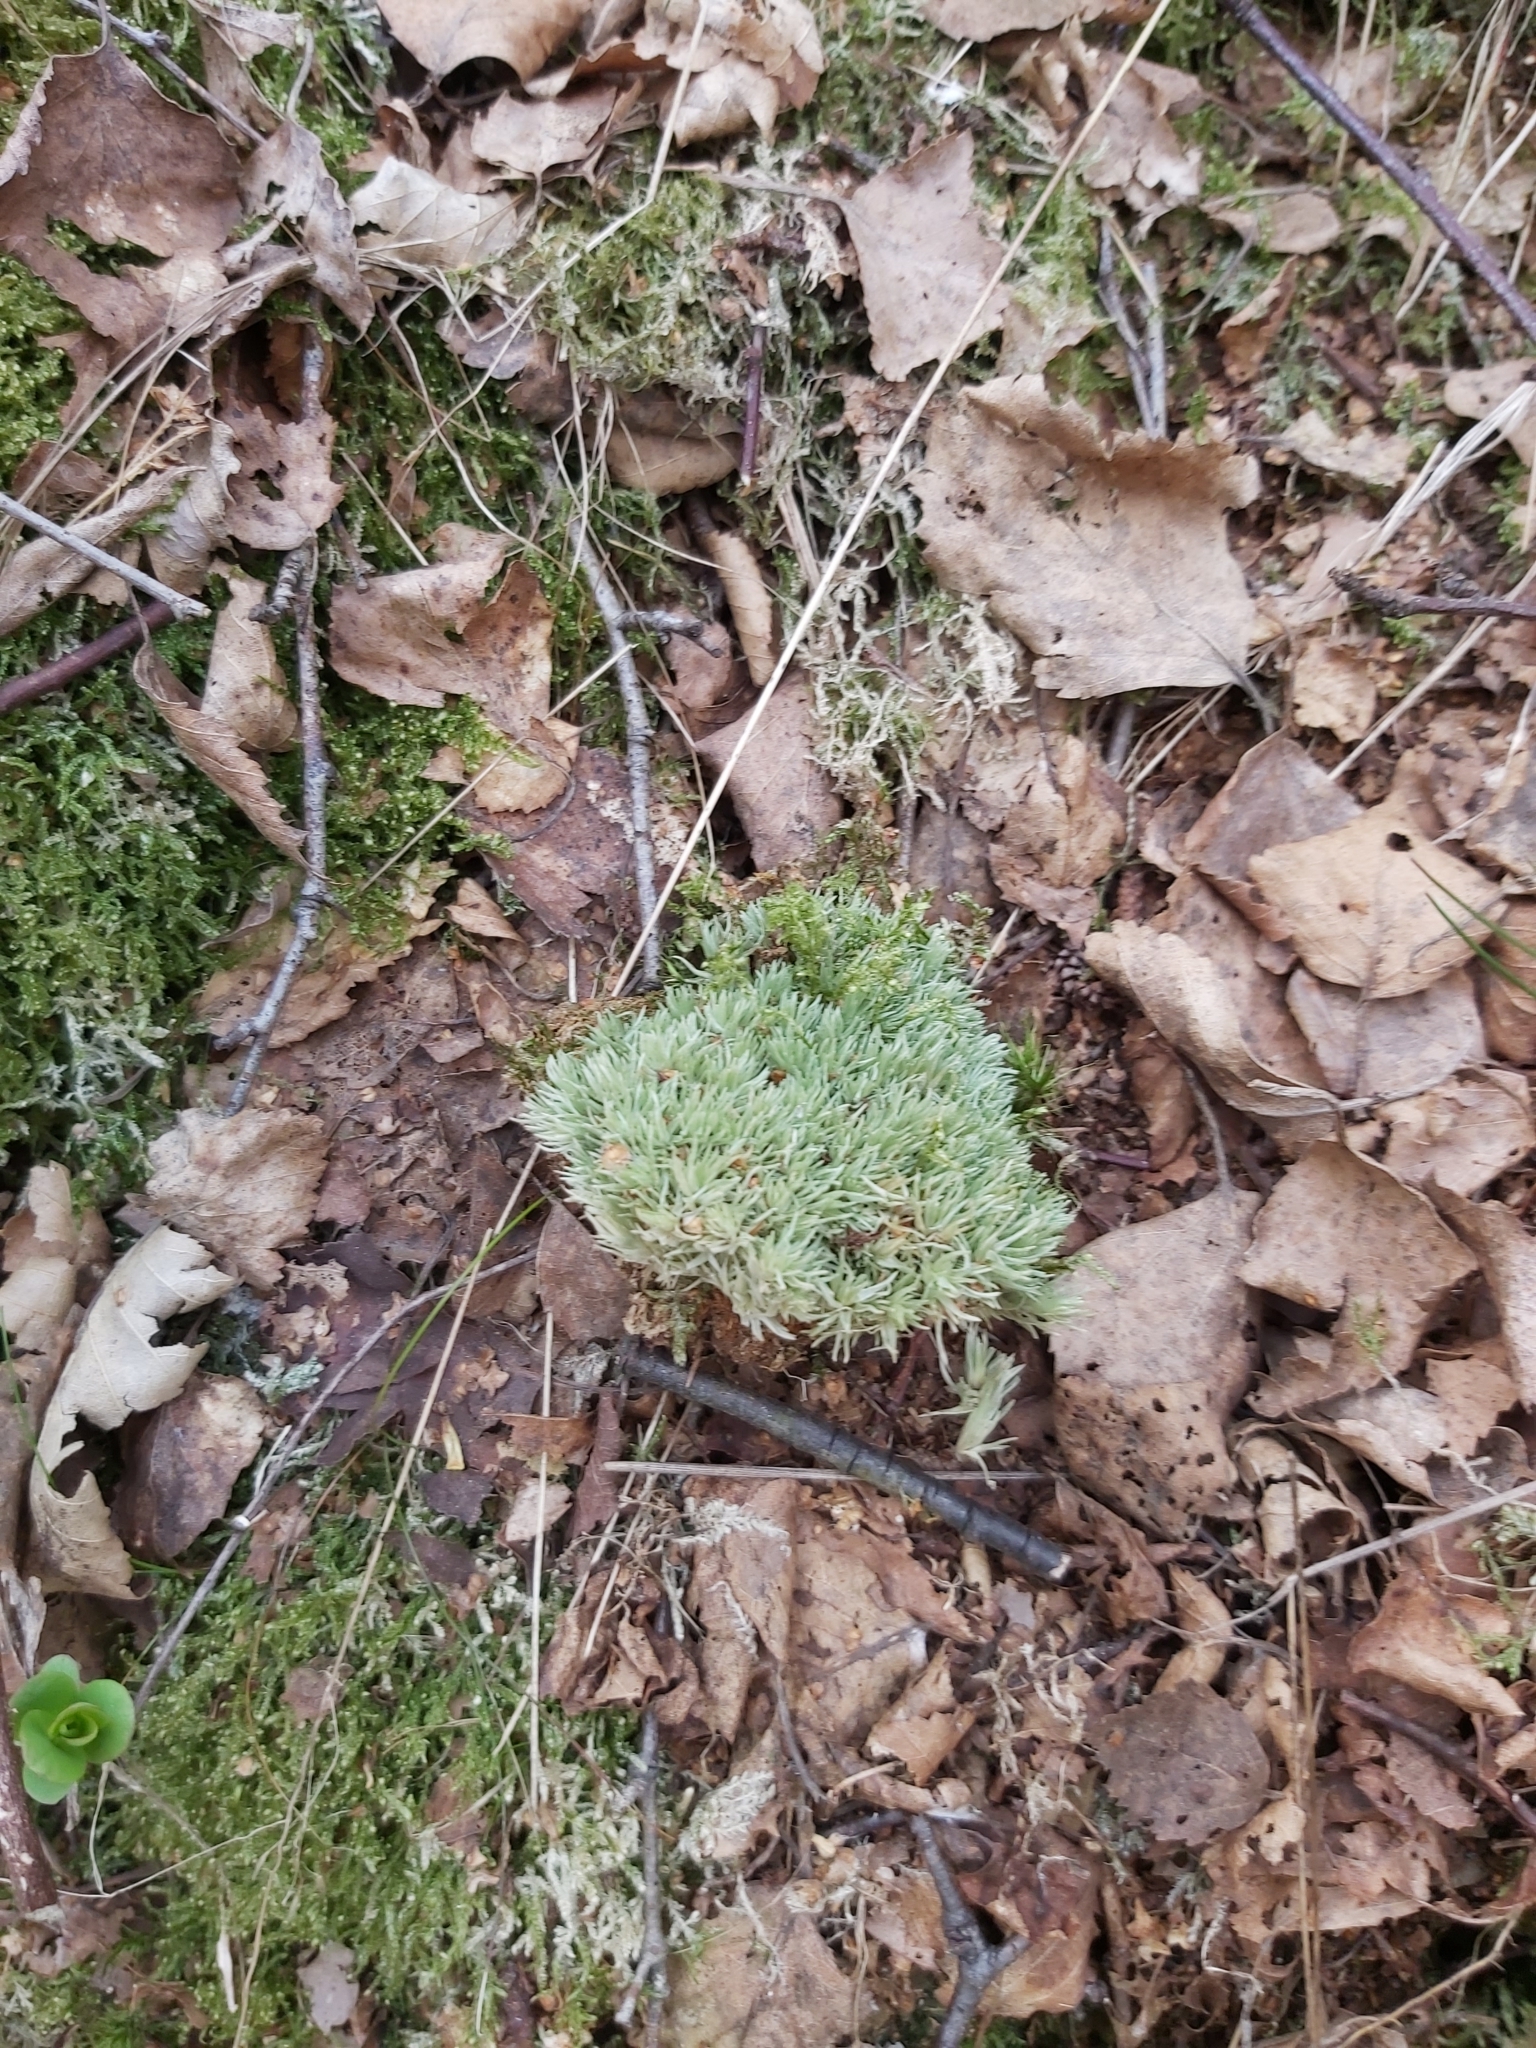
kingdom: Plantae
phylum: Bryophyta
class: Bryopsida
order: Dicranales
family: Leucobryaceae
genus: Leucobryum
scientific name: Leucobryum glaucum
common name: Large white-moss
